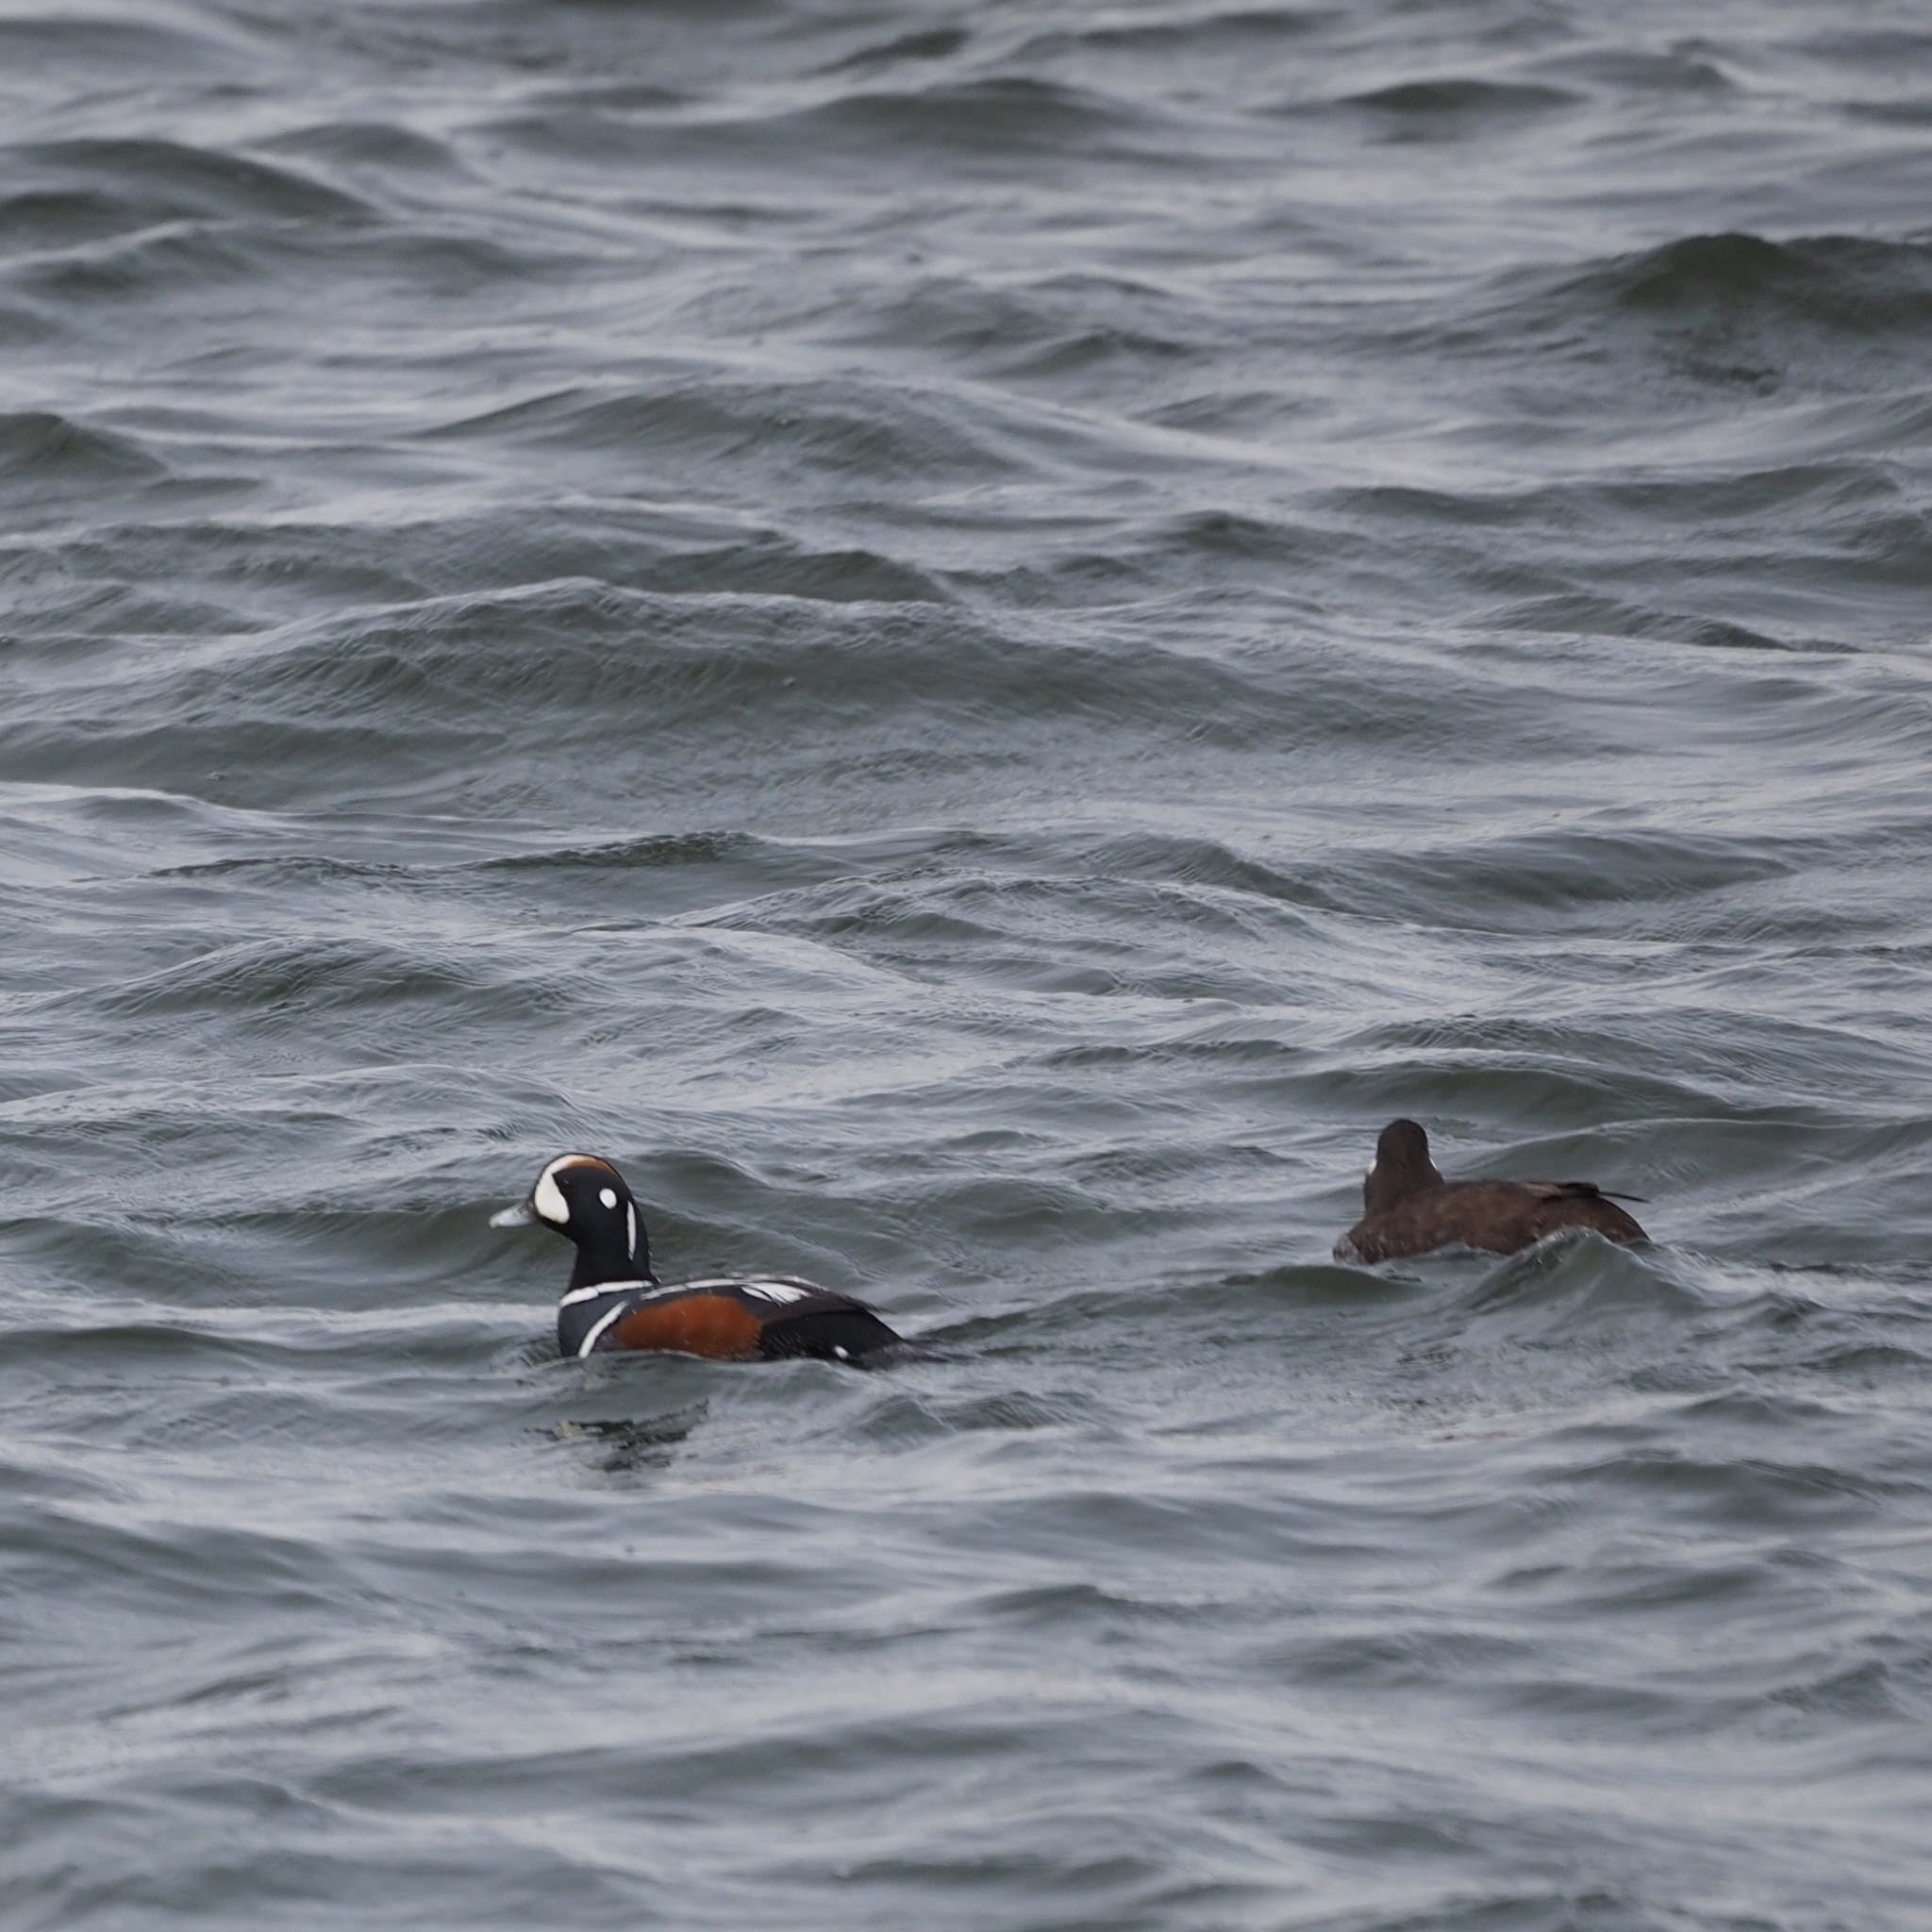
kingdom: Animalia
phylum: Chordata
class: Aves
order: Anseriformes
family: Anatidae
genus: Histrionicus
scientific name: Histrionicus histrionicus
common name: Harlequin duck
